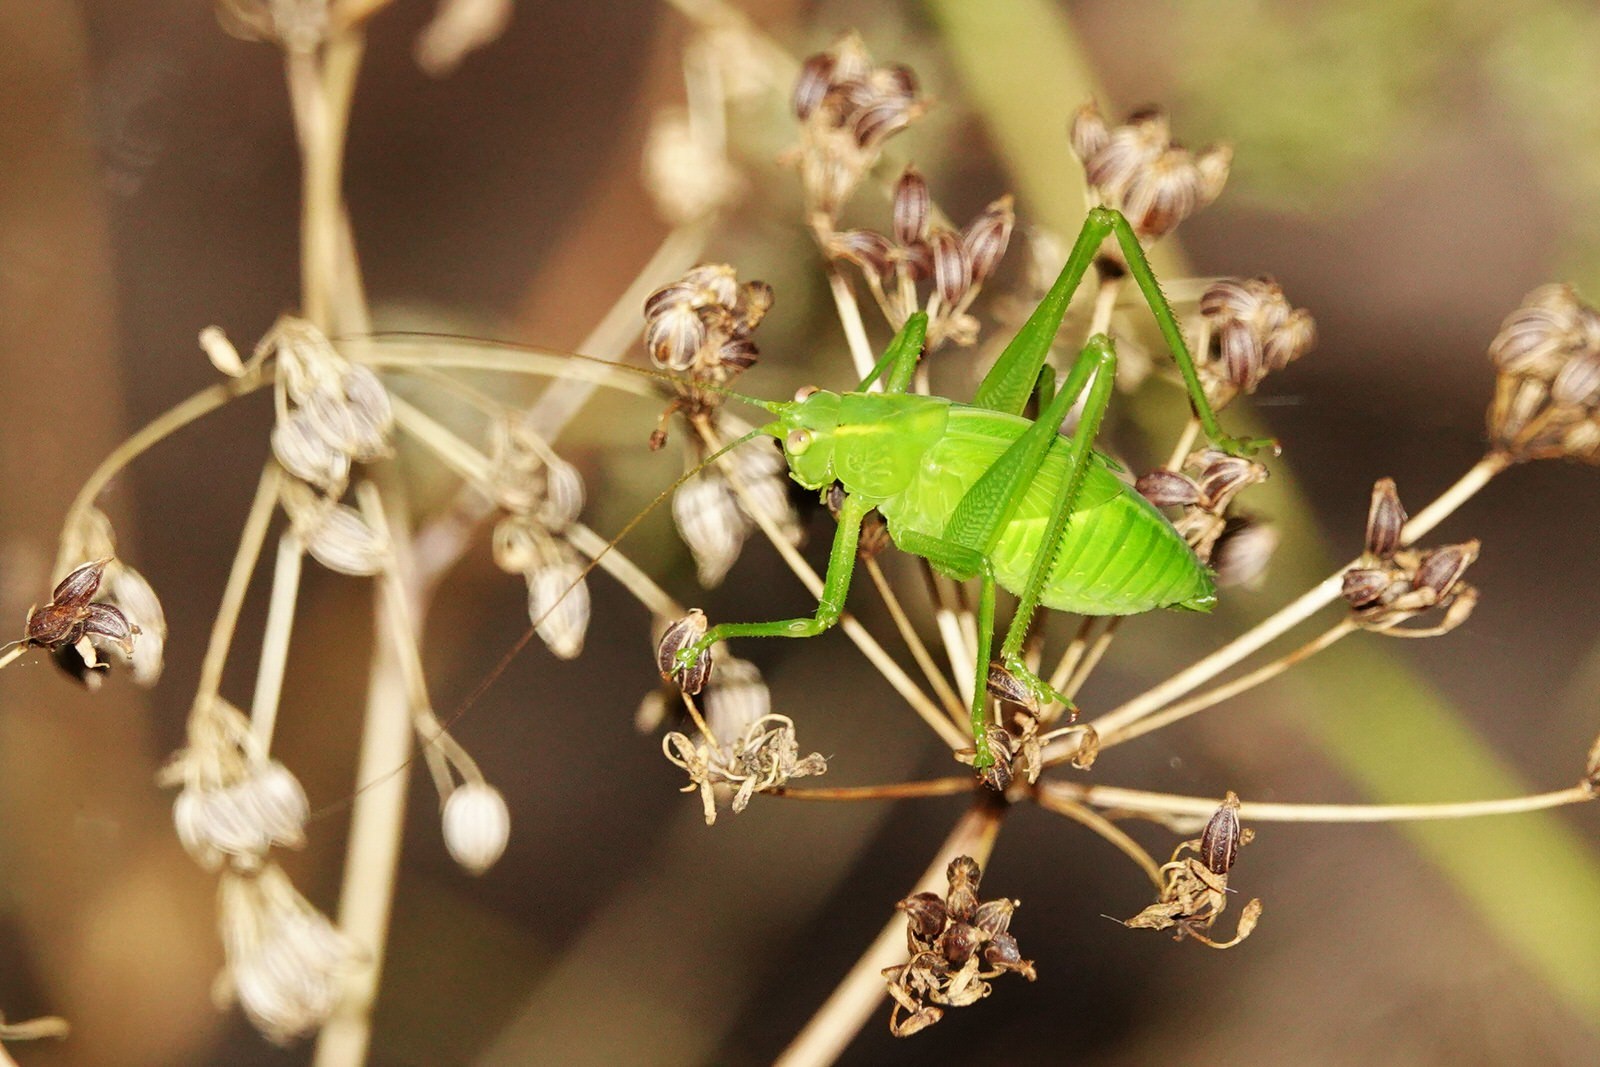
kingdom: Animalia
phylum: Arthropoda
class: Insecta
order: Orthoptera
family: Tettigoniidae
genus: Caedicia
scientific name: Caedicia simplex
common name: Common garden katydid
